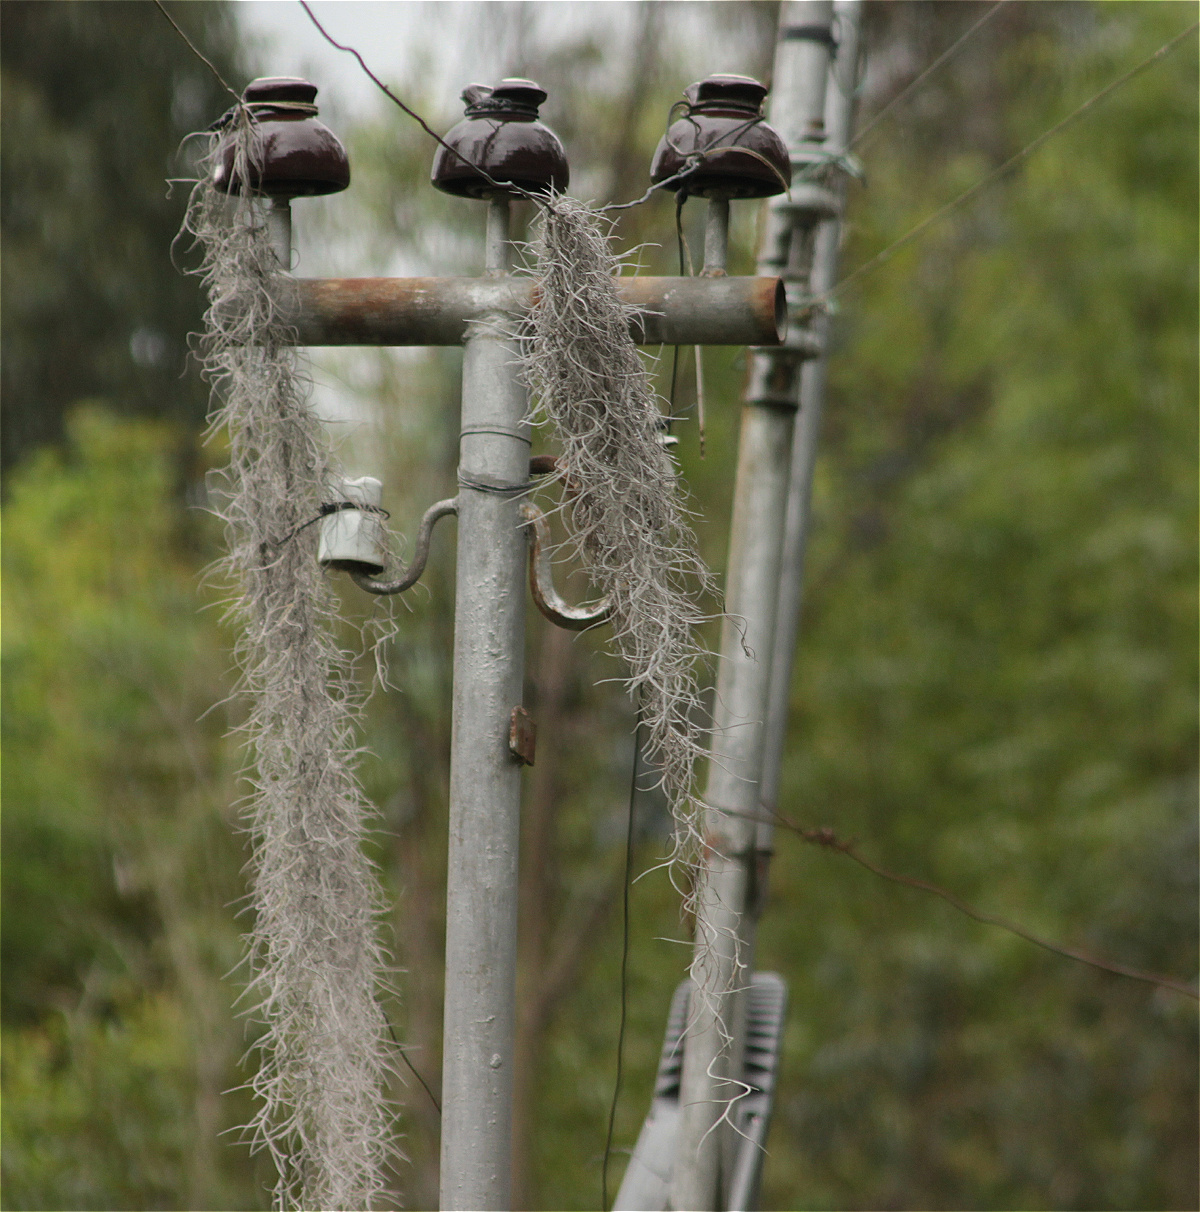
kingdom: Plantae
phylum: Tracheophyta
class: Liliopsida
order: Poales
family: Bromeliaceae
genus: Tillandsia
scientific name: Tillandsia usneoides
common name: Spanish moss
